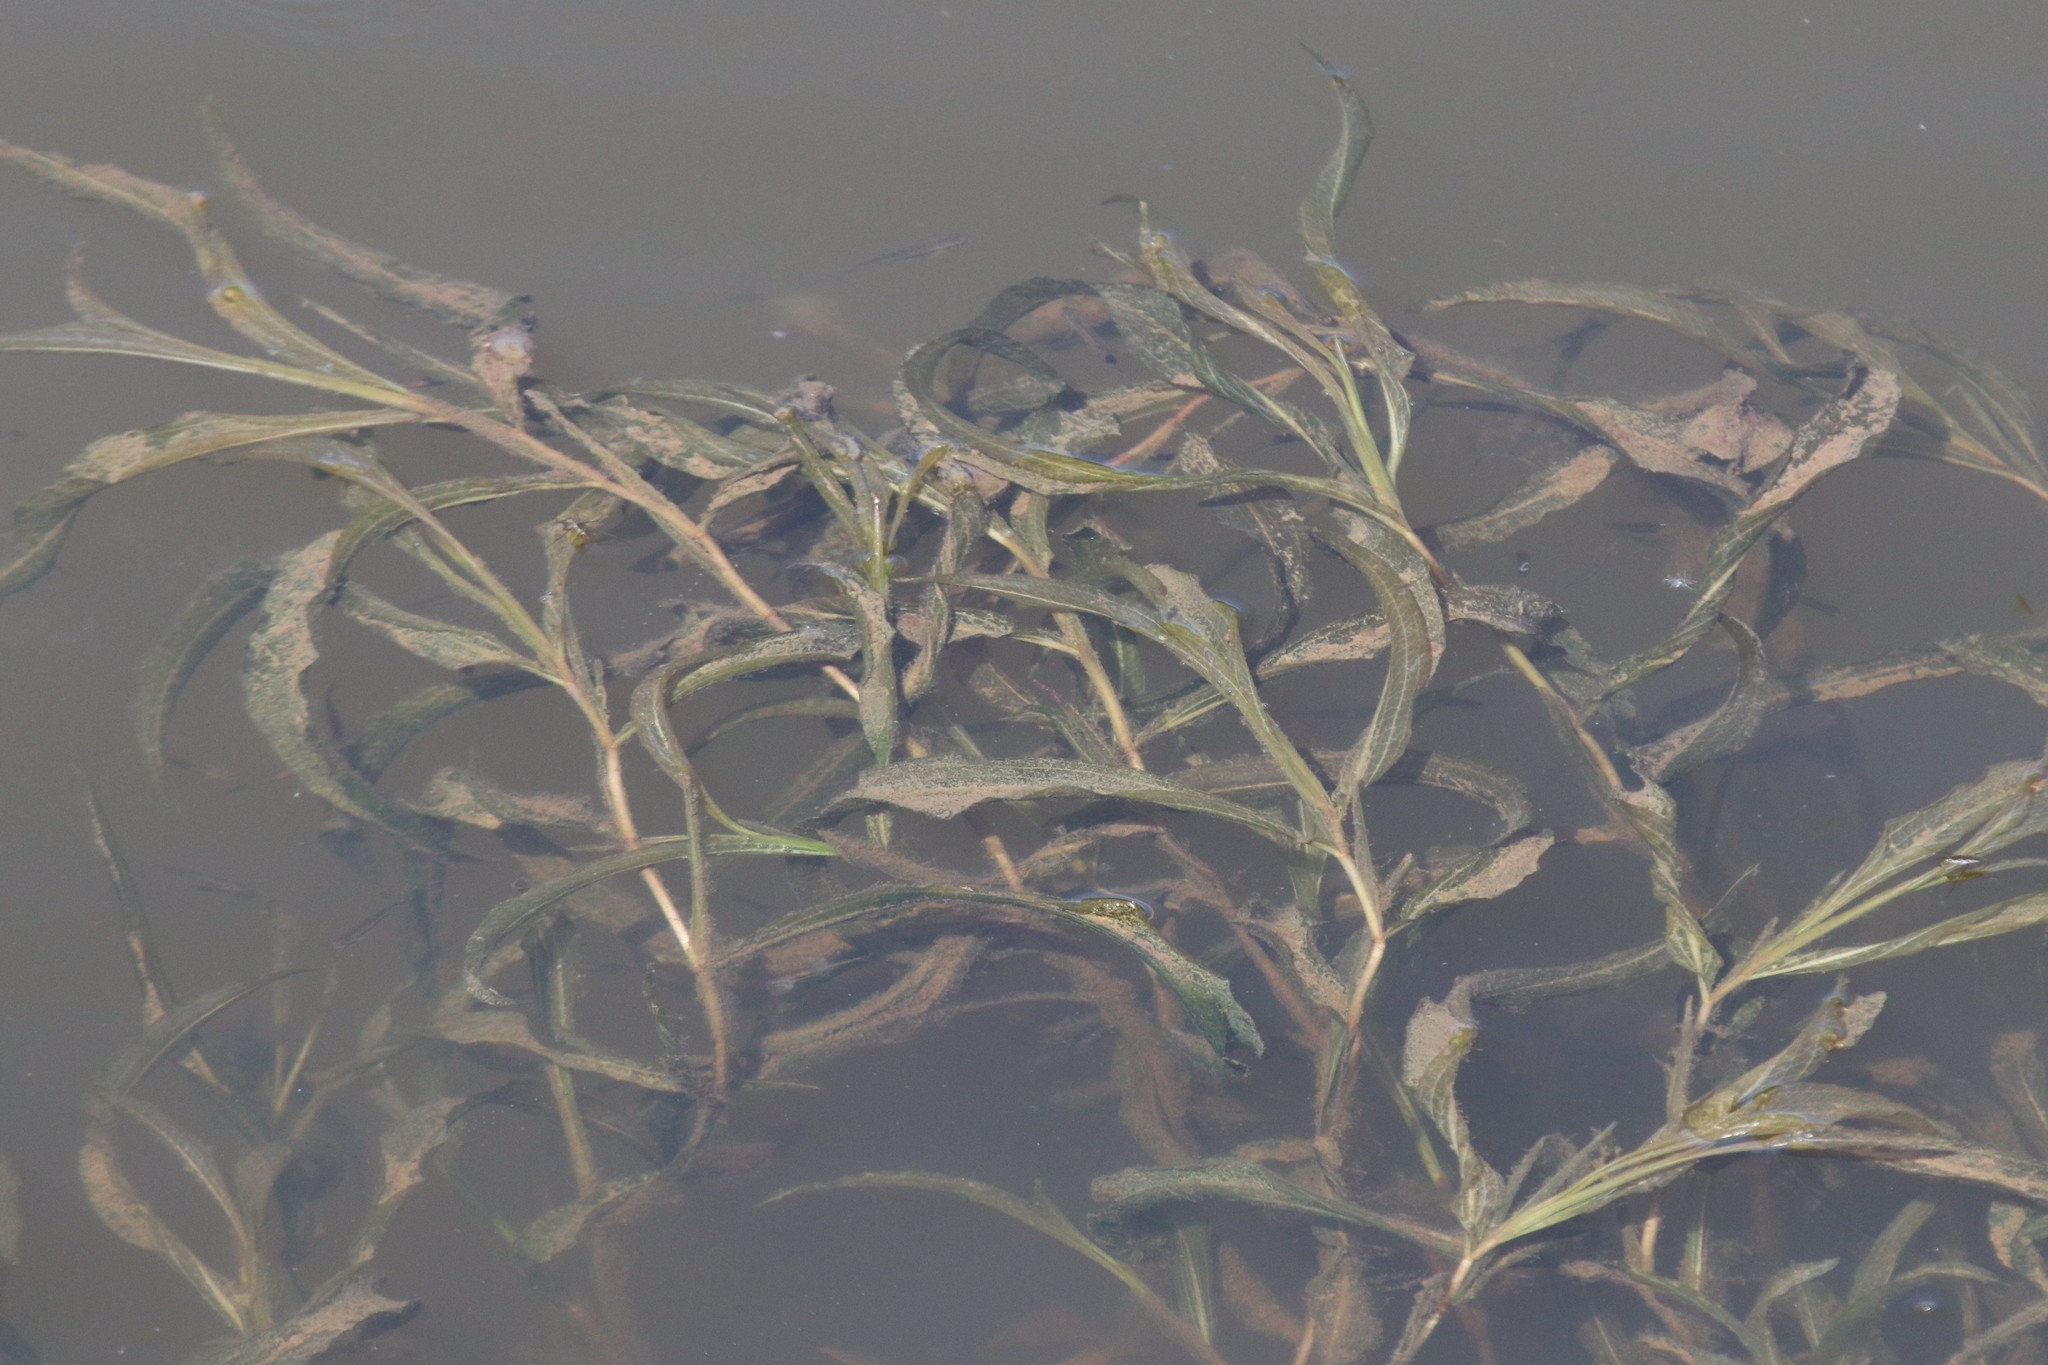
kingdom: Plantae
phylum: Tracheophyta
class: Liliopsida
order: Alismatales
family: Potamogetonaceae
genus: Potamogeton
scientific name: Potamogeton lucens
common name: Shining pondweed
